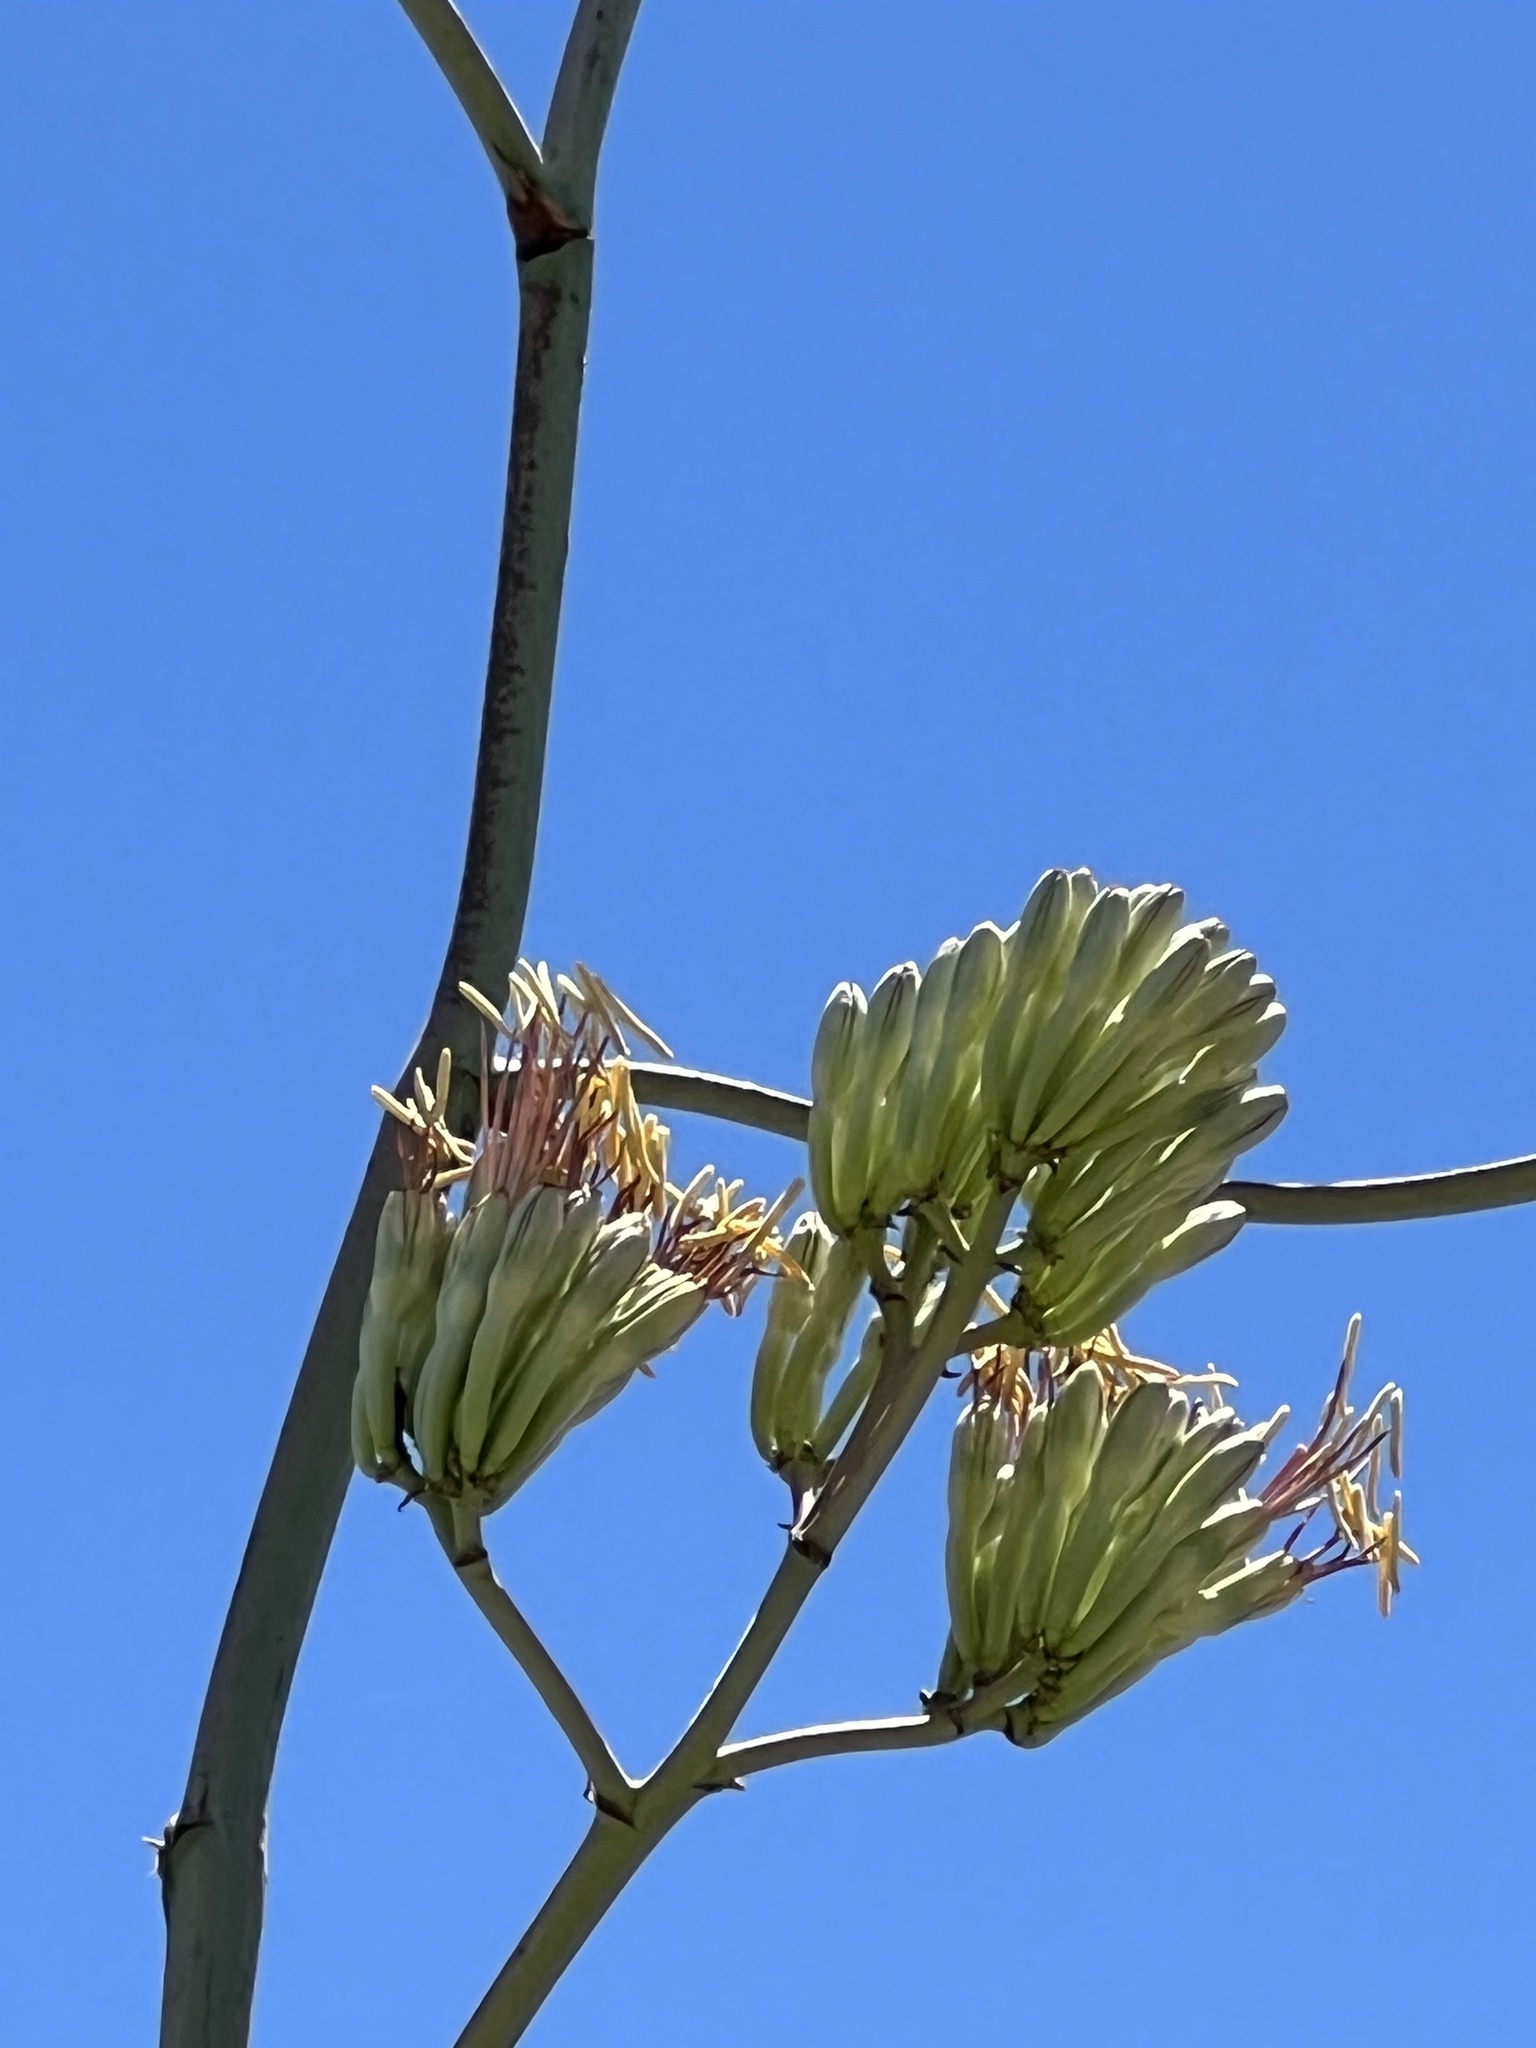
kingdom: Plantae
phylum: Tracheophyta
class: Liliopsida
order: Asparagales
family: Asparagaceae
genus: Agave
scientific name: Agave palmeri
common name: Palmer agave
